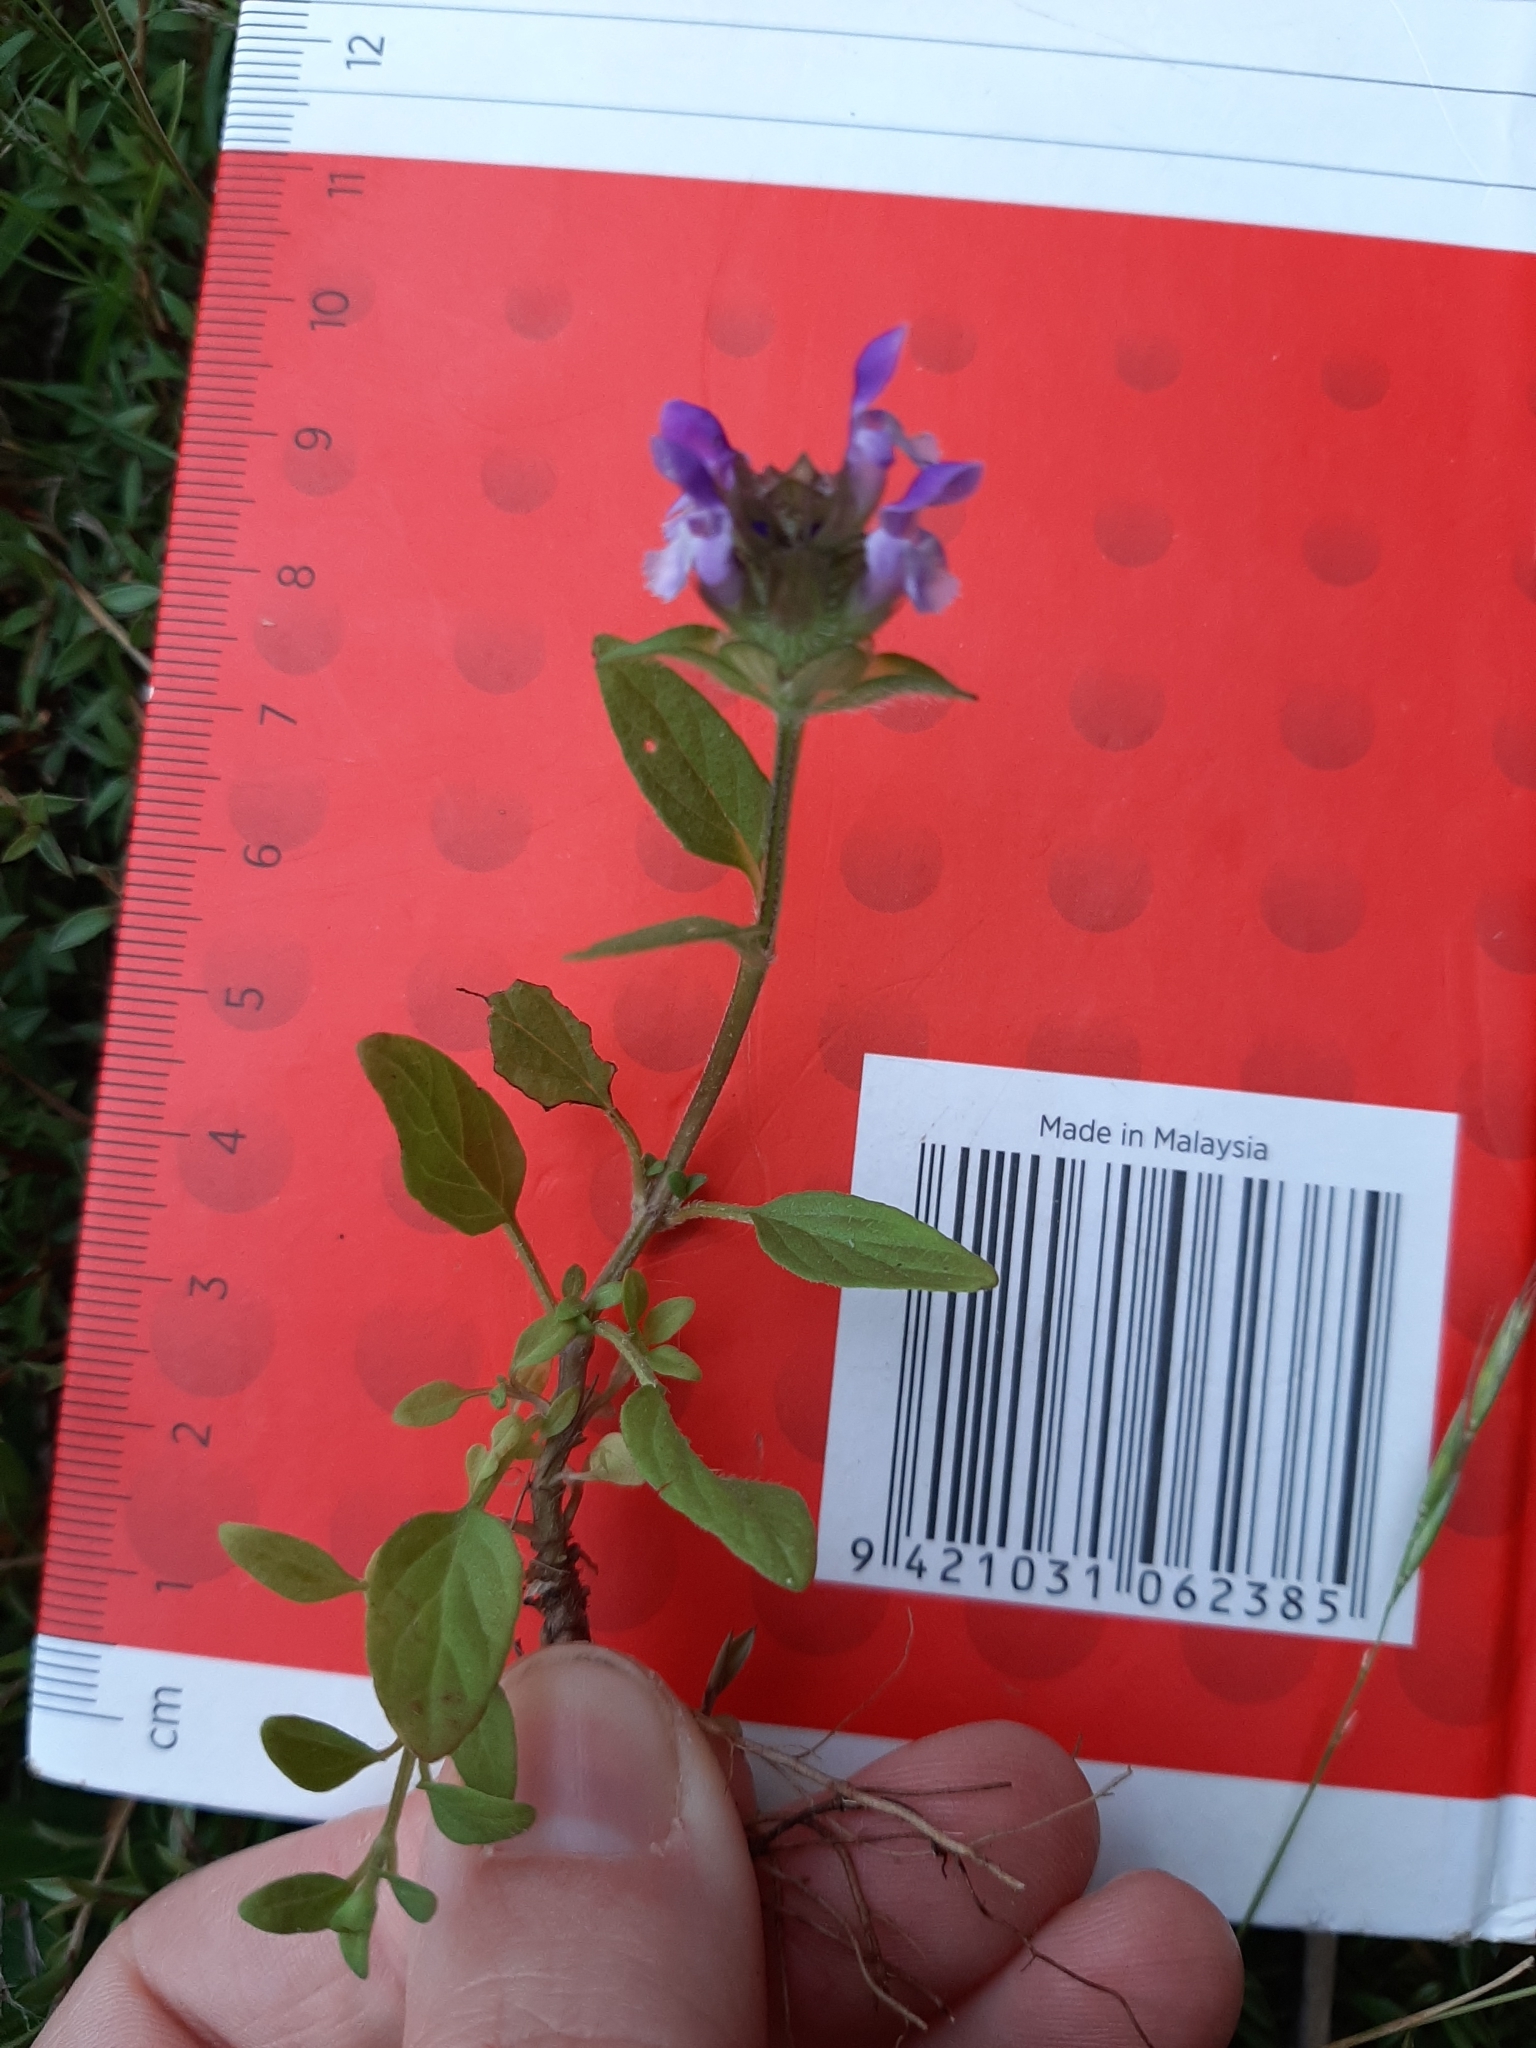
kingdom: Plantae
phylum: Tracheophyta
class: Magnoliopsida
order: Lamiales
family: Lamiaceae
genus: Prunella
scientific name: Prunella vulgaris
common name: Heal-all
